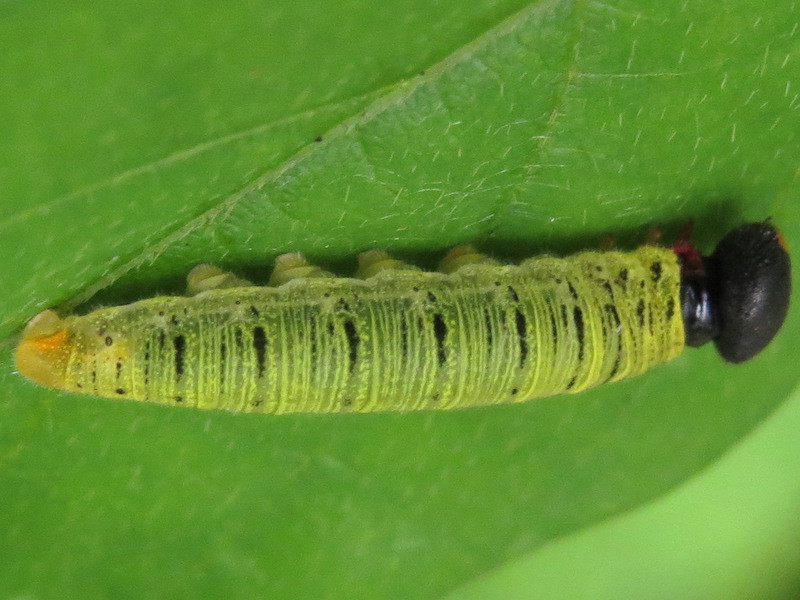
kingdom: Animalia
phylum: Arthropoda
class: Insecta
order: Lepidoptera
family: Hesperiidae
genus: Epargyreus
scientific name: Epargyreus clarus
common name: Silver-spotted skipper
